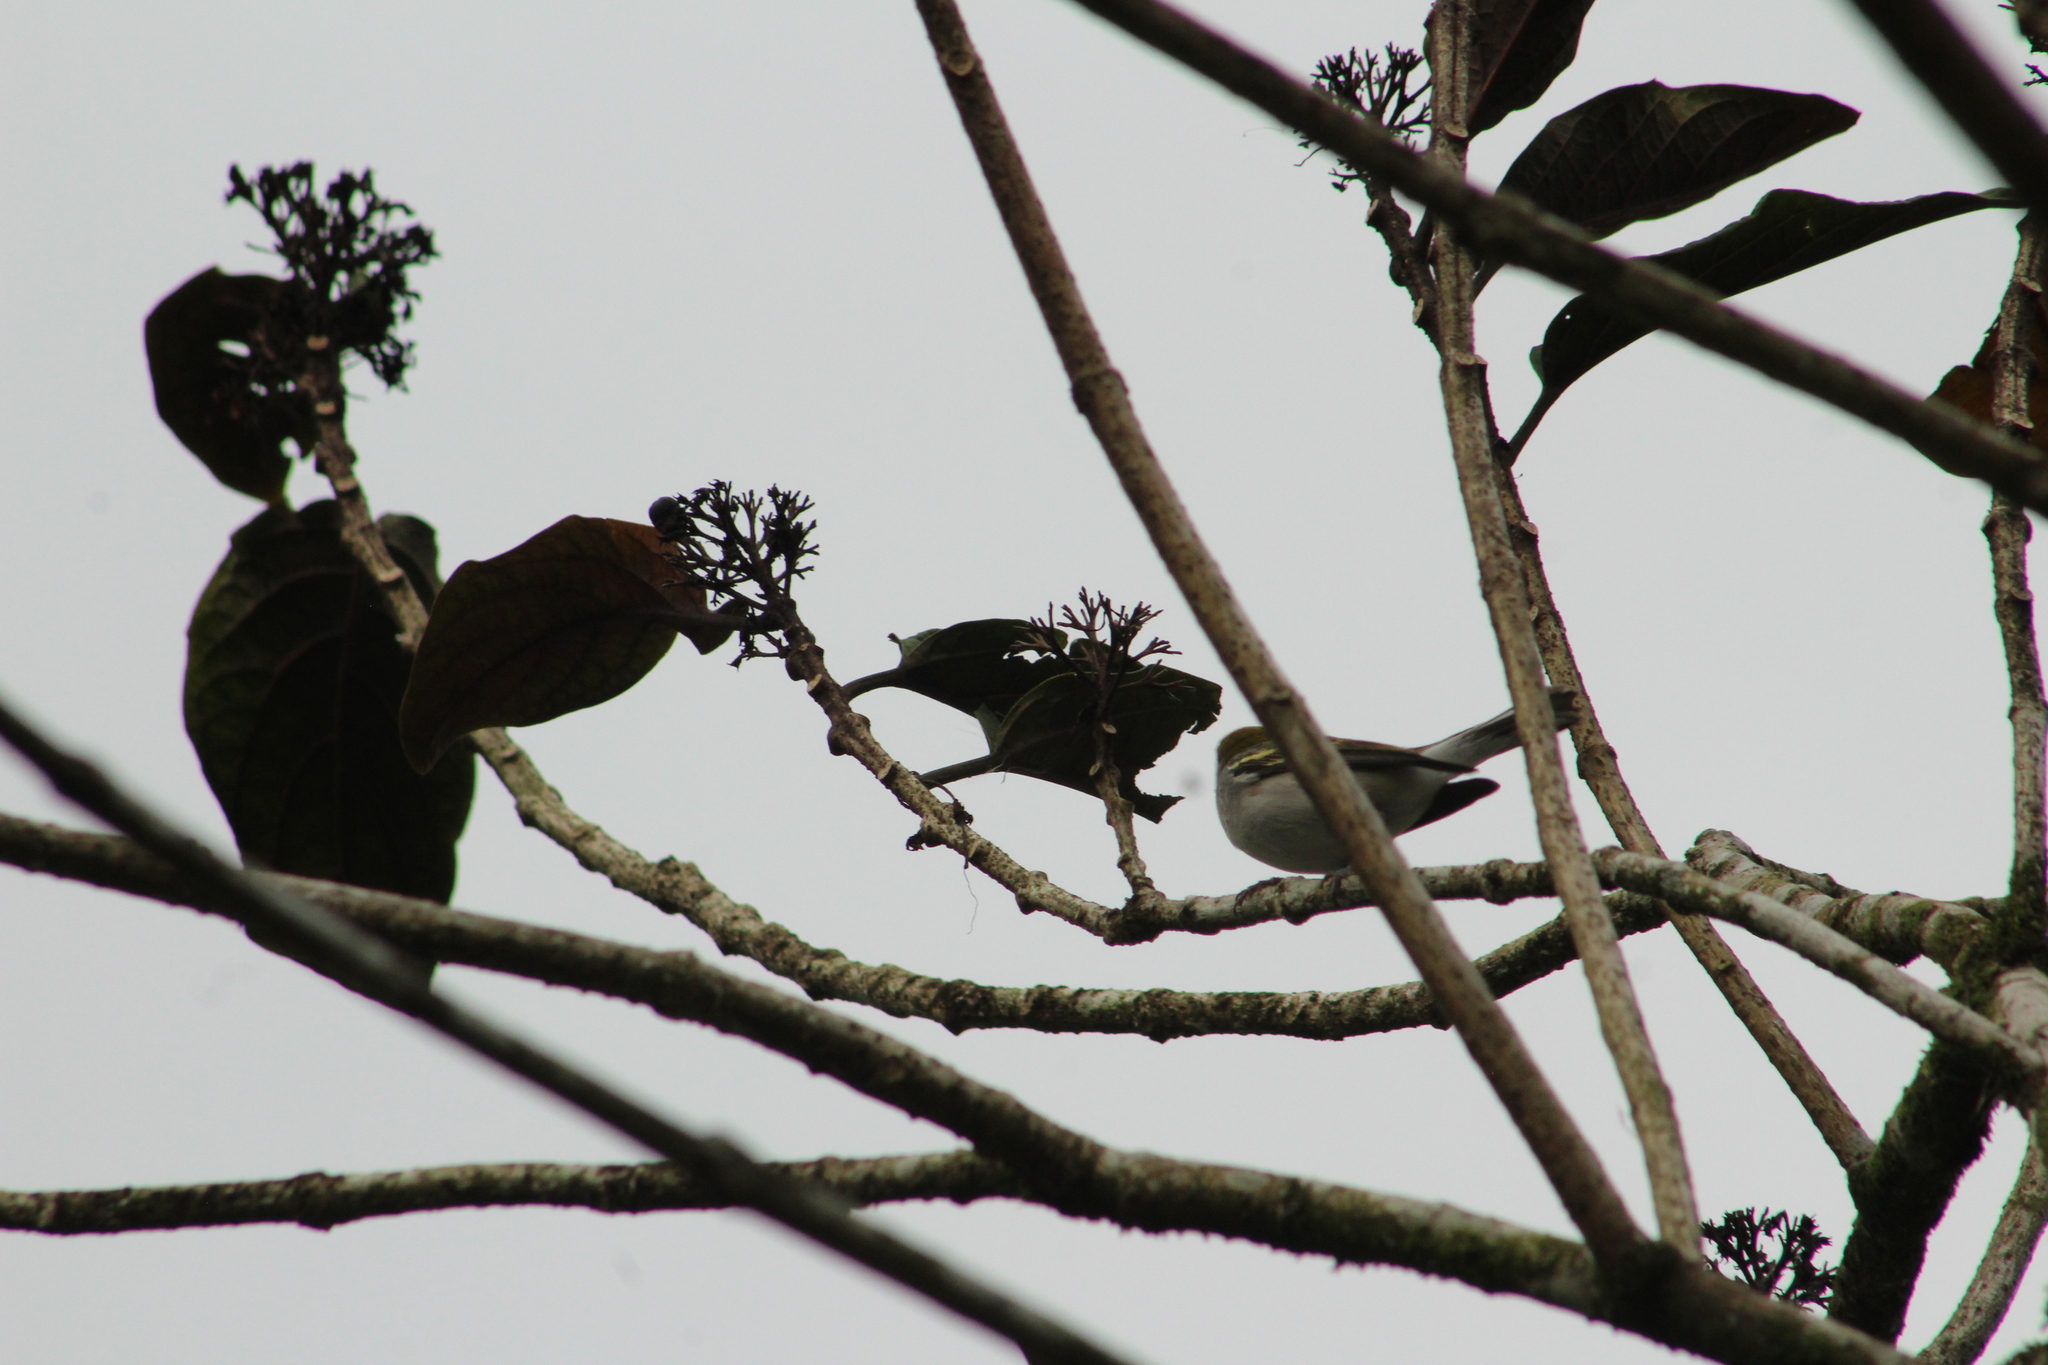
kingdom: Animalia
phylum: Chordata
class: Aves
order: Passeriformes
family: Parulidae
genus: Setophaga
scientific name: Setophaga pensylvanica
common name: Chestnut-sided warbler
